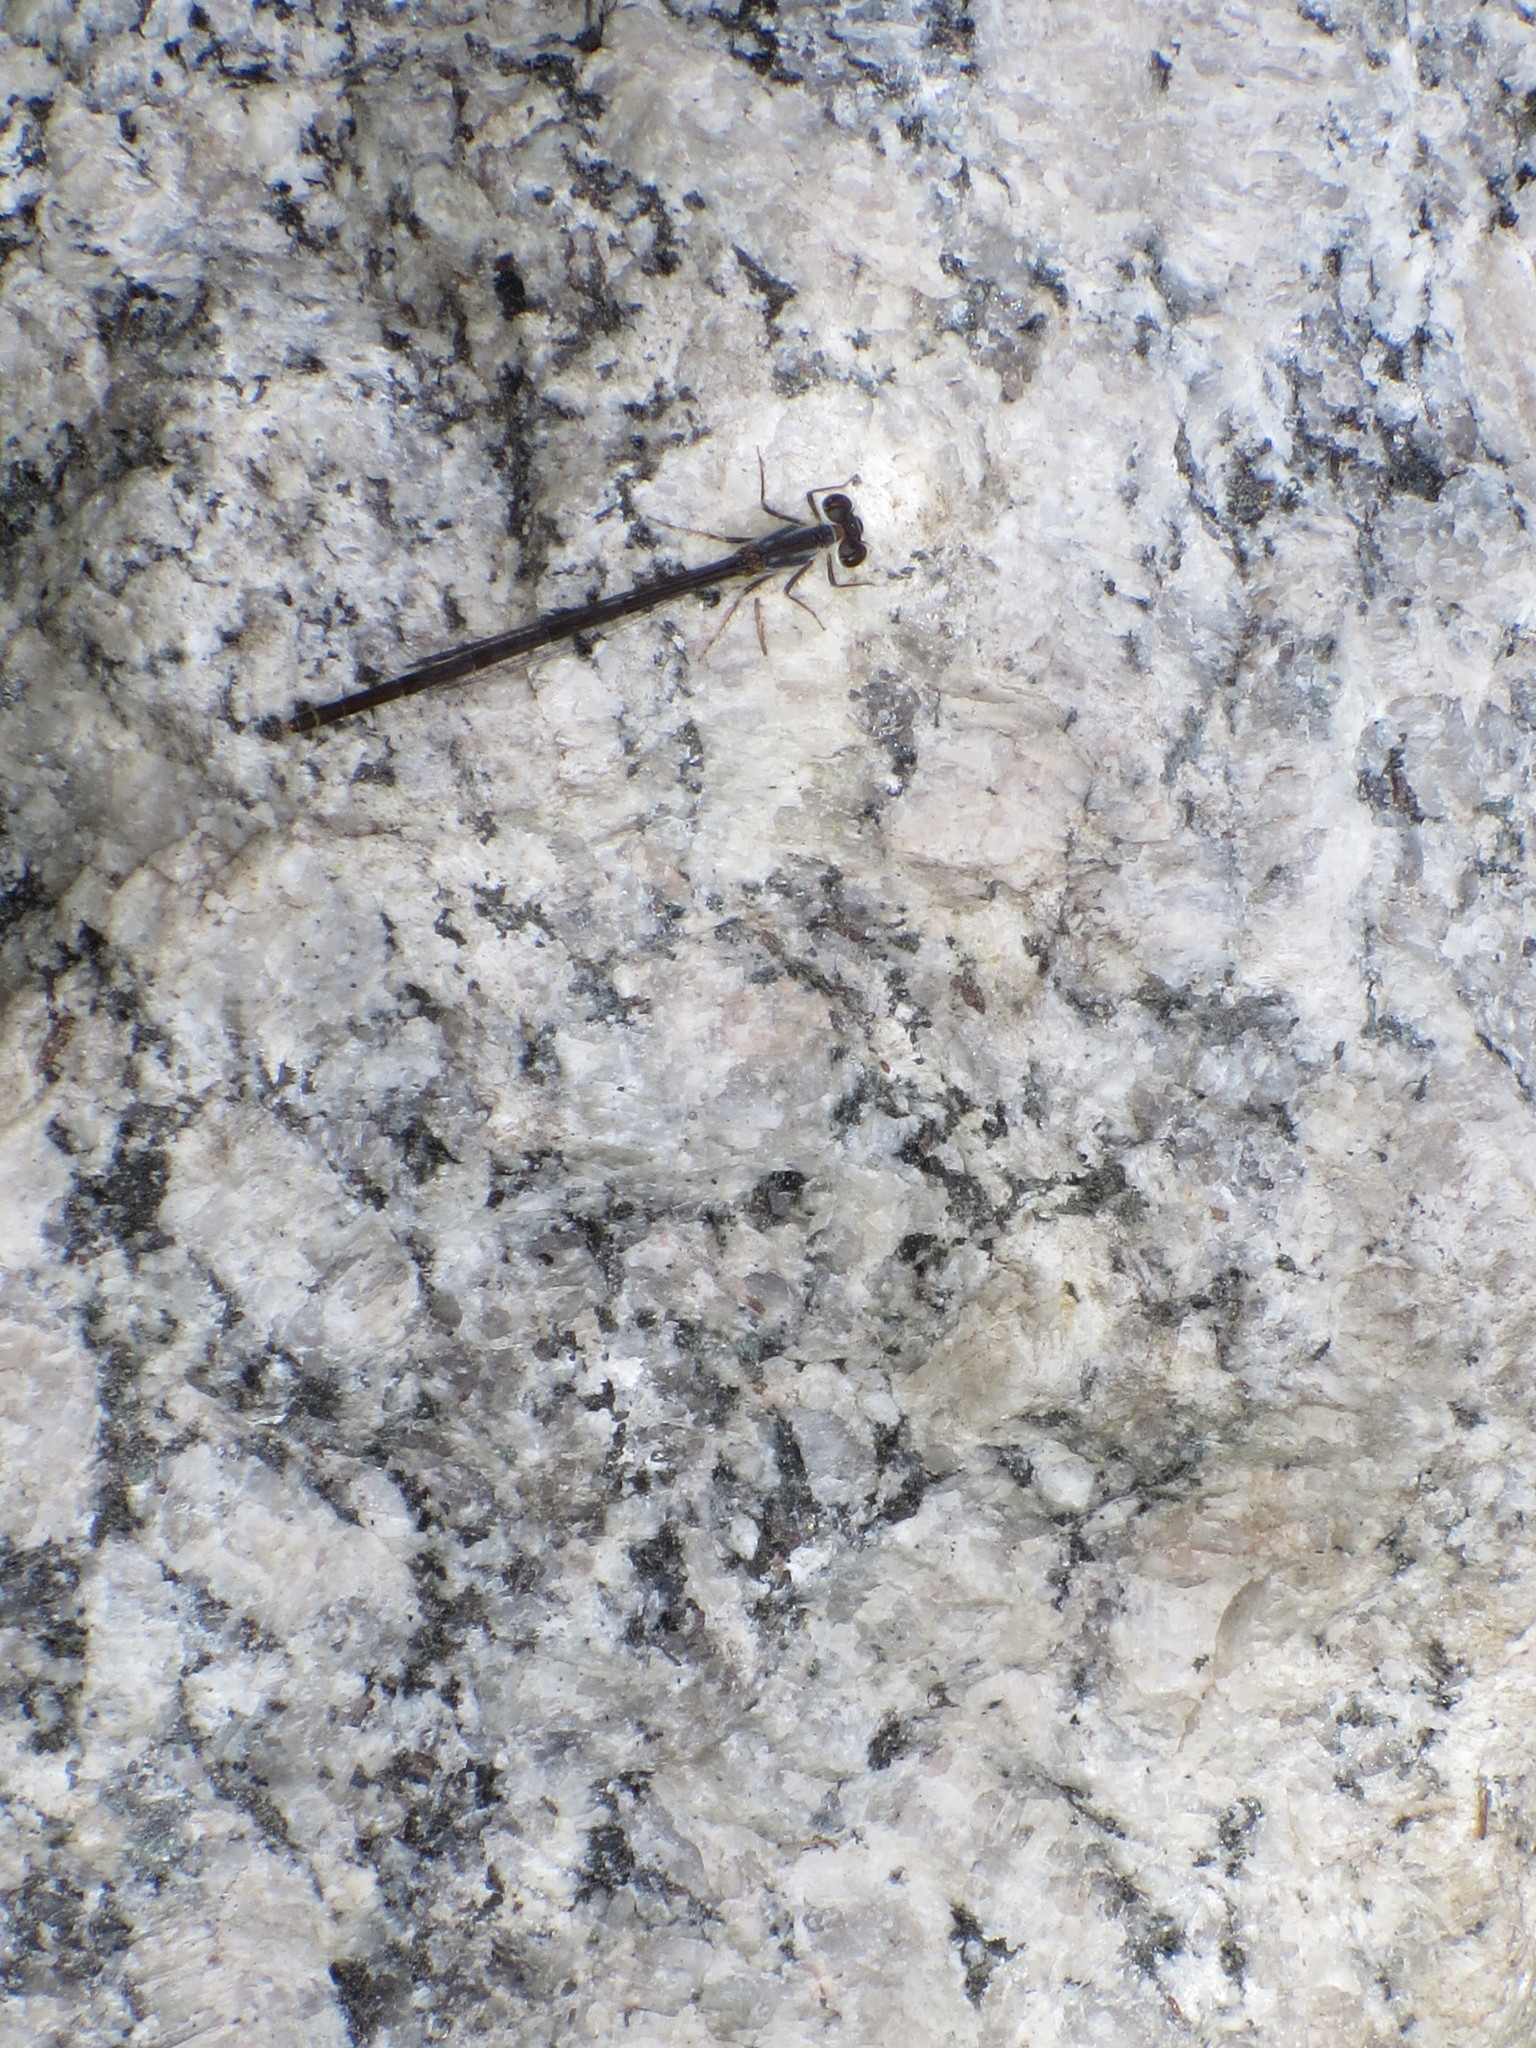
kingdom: Animalia
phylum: Arthropoda
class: Insecta
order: Odonata
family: Coenagrionidae
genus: Ischnura
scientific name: Ischnura posita
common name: Fragile forktail
